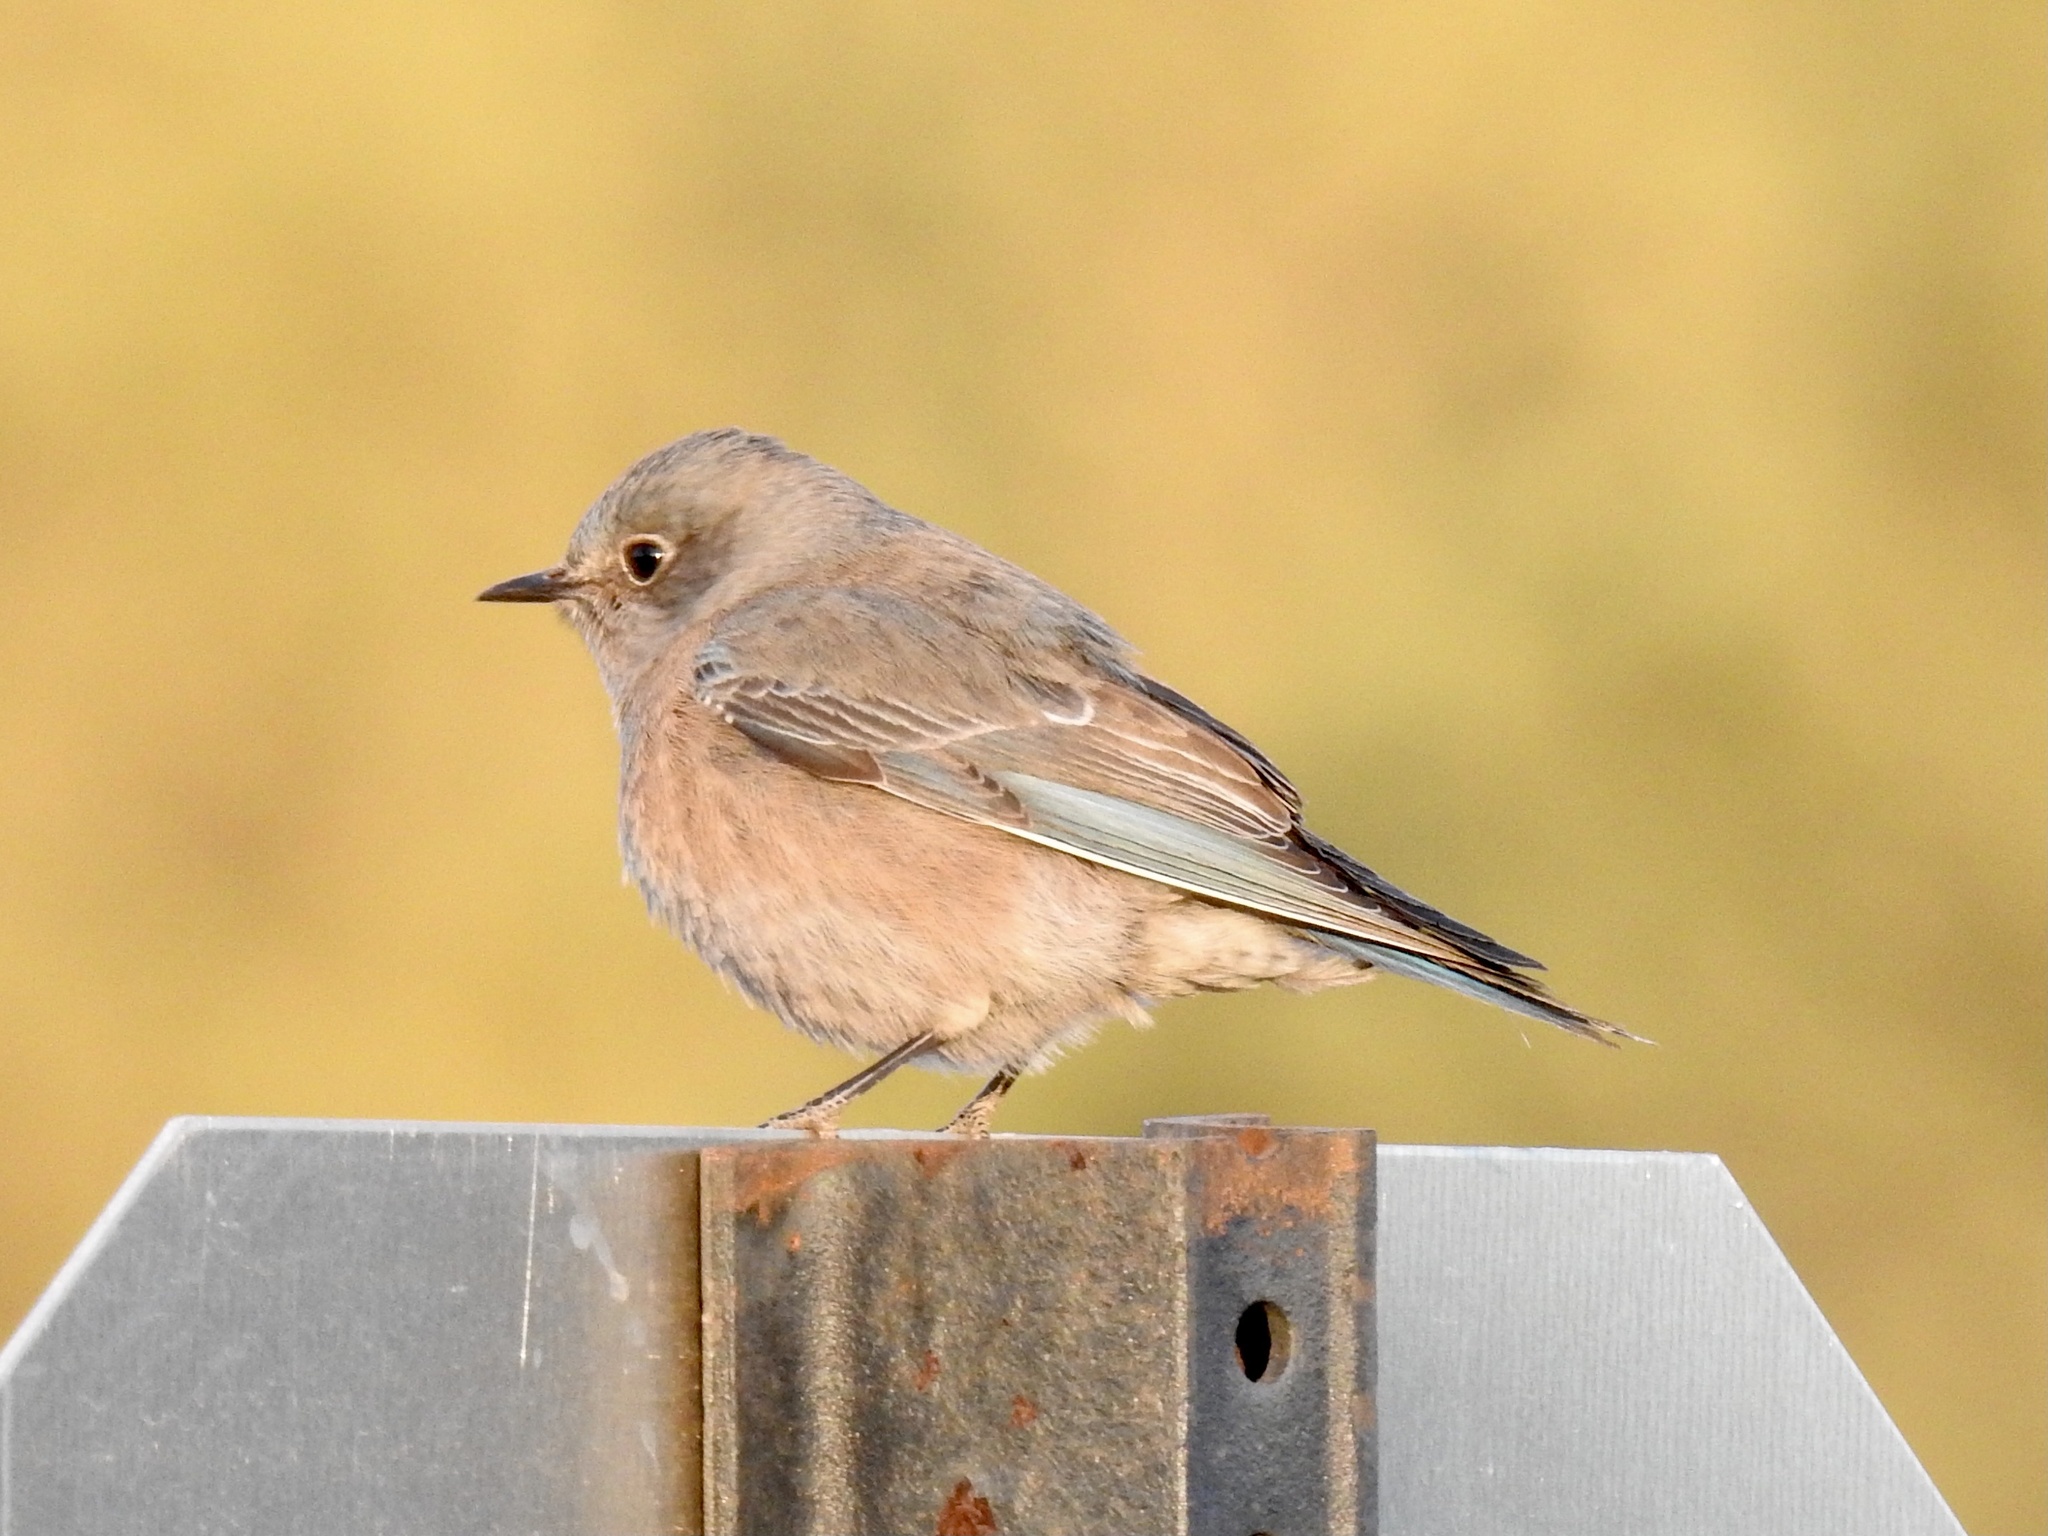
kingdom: Animalia
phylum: Chordata
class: Aves
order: Passeriformes
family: Turdidae
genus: Sialia
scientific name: Sialia mexicana
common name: Western bluebird
